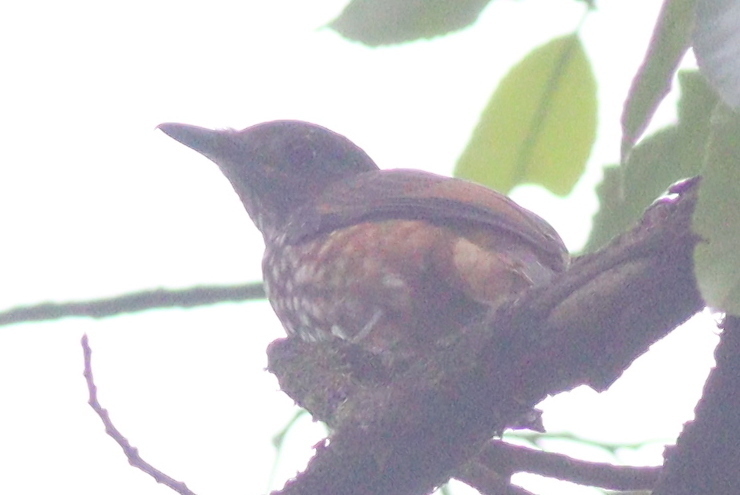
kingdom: Animalia
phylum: Chordata
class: Aves
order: Passeriformes
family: Platysteiridae
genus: Megabyas
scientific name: Megabyas flammulatus
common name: African shrike-flycatcher
